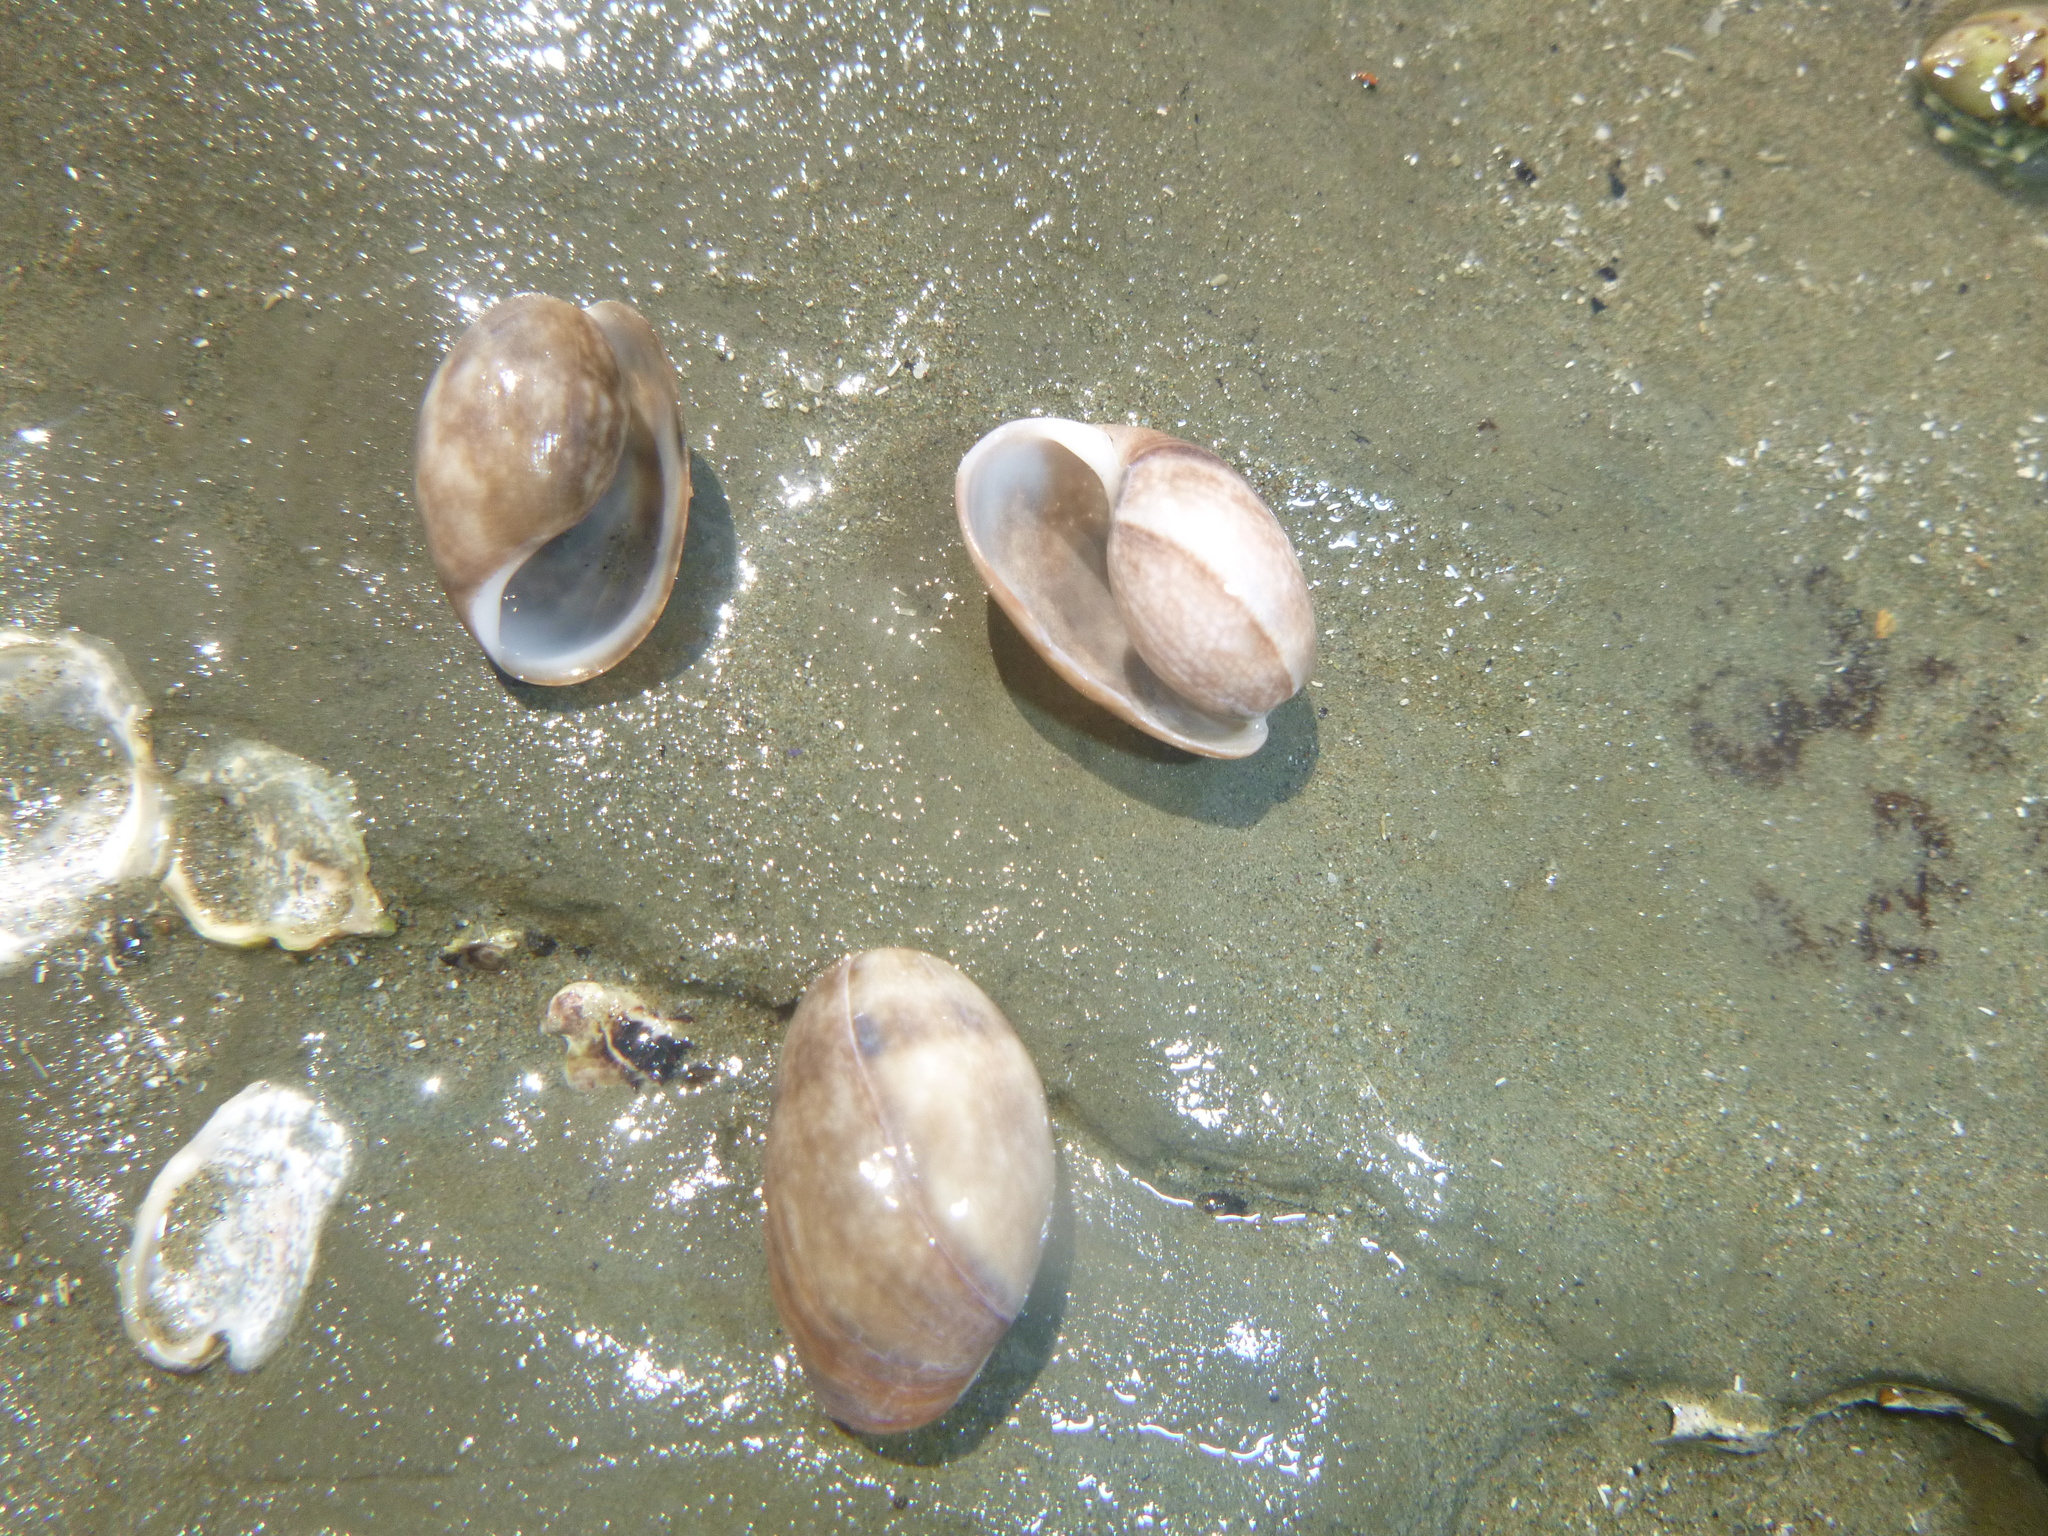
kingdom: Animalia
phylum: Mollusca
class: Gastropoda
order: Cephalaspidea
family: Bullidae
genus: Bulla
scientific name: Bulla quoyii
